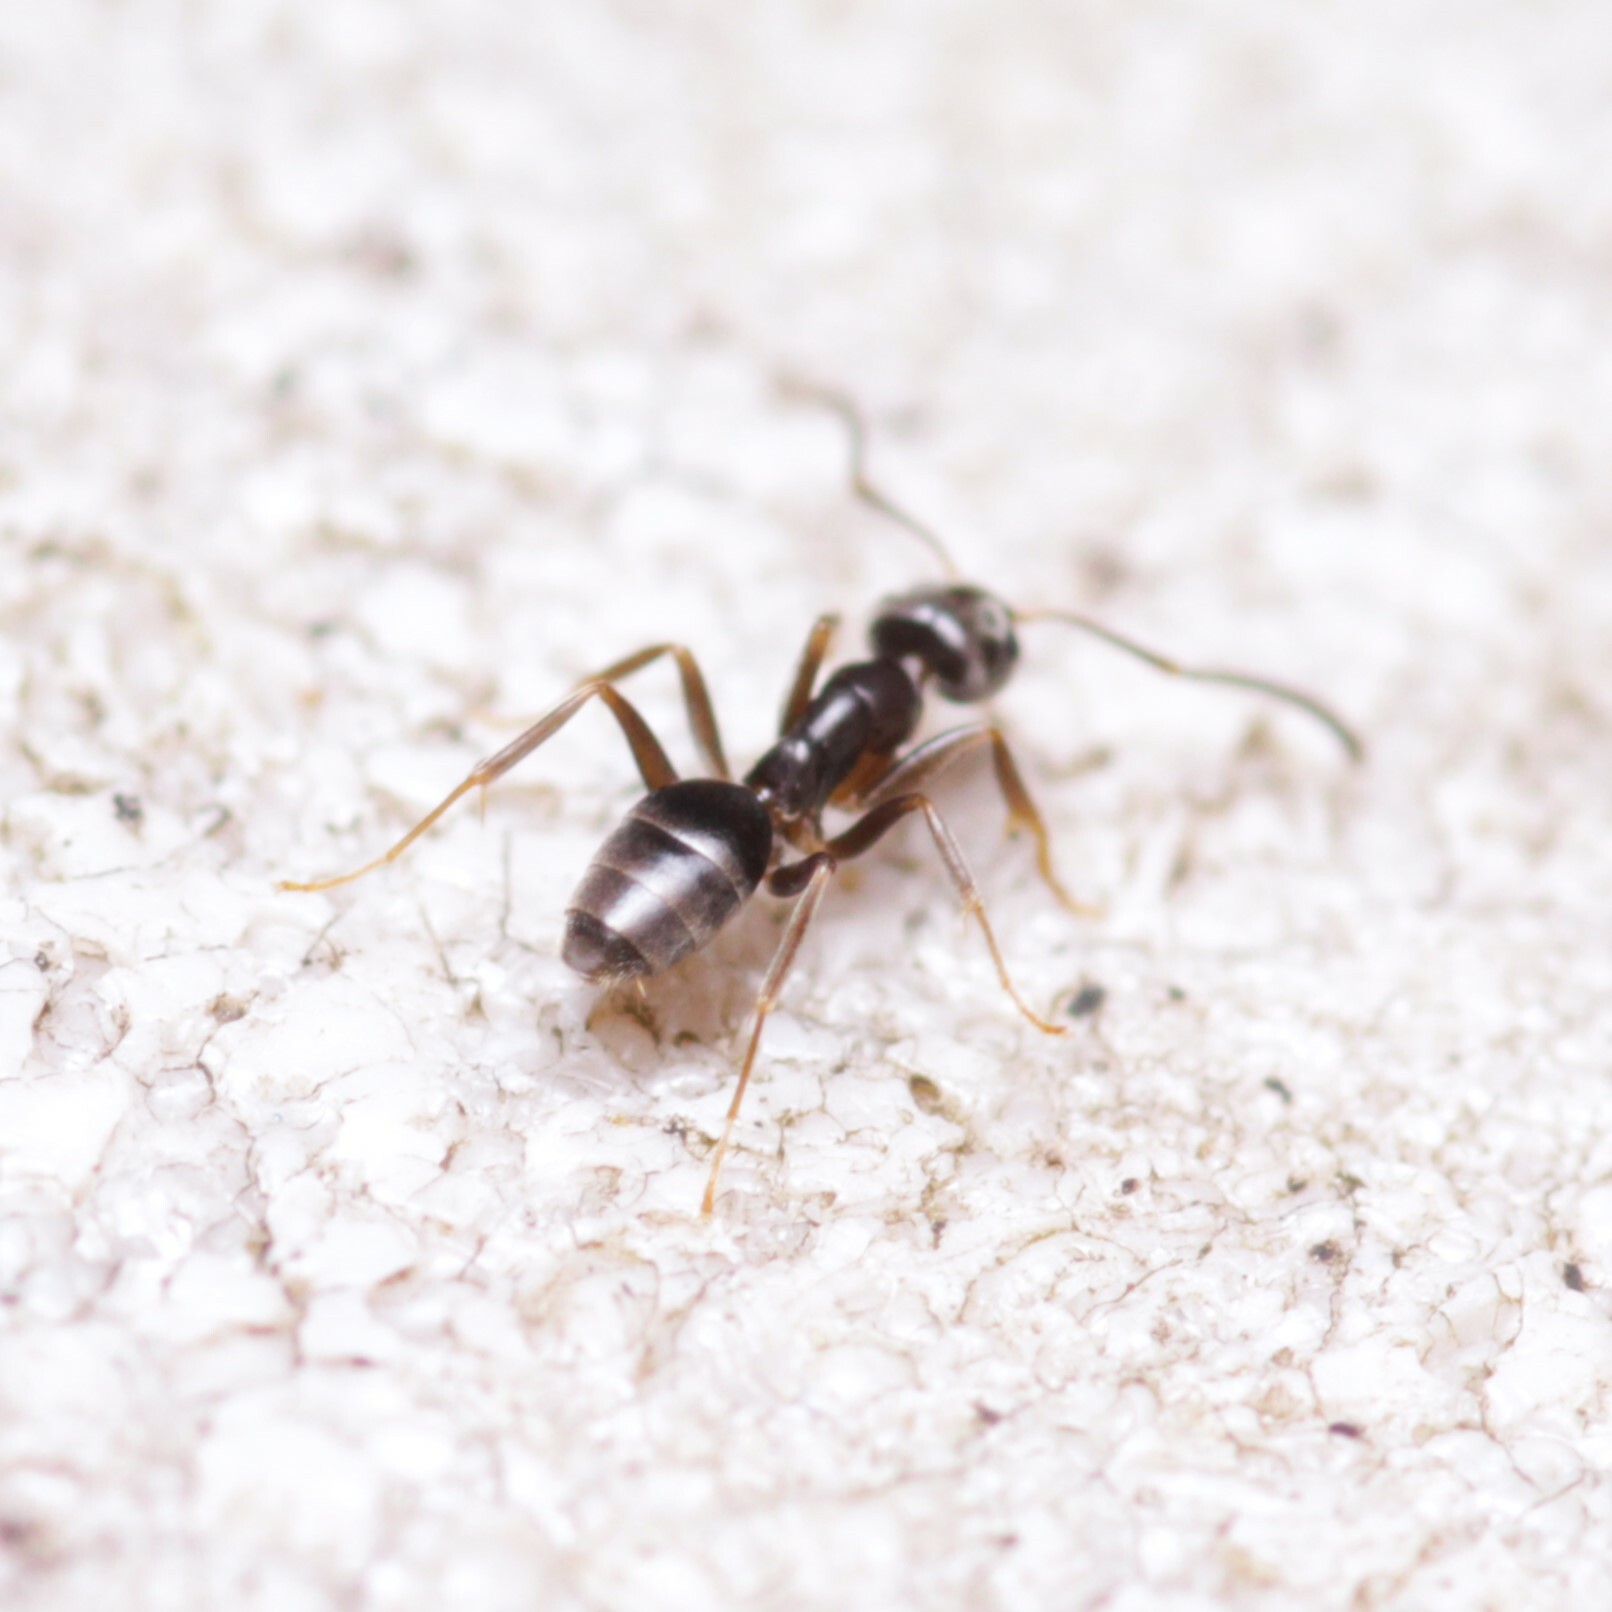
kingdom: Animalia
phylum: Arthropoda
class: Insecta
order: Hymenoptera
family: Formicidae
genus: Tapinoma
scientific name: Tapinoma sessile
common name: Odorous house ant
